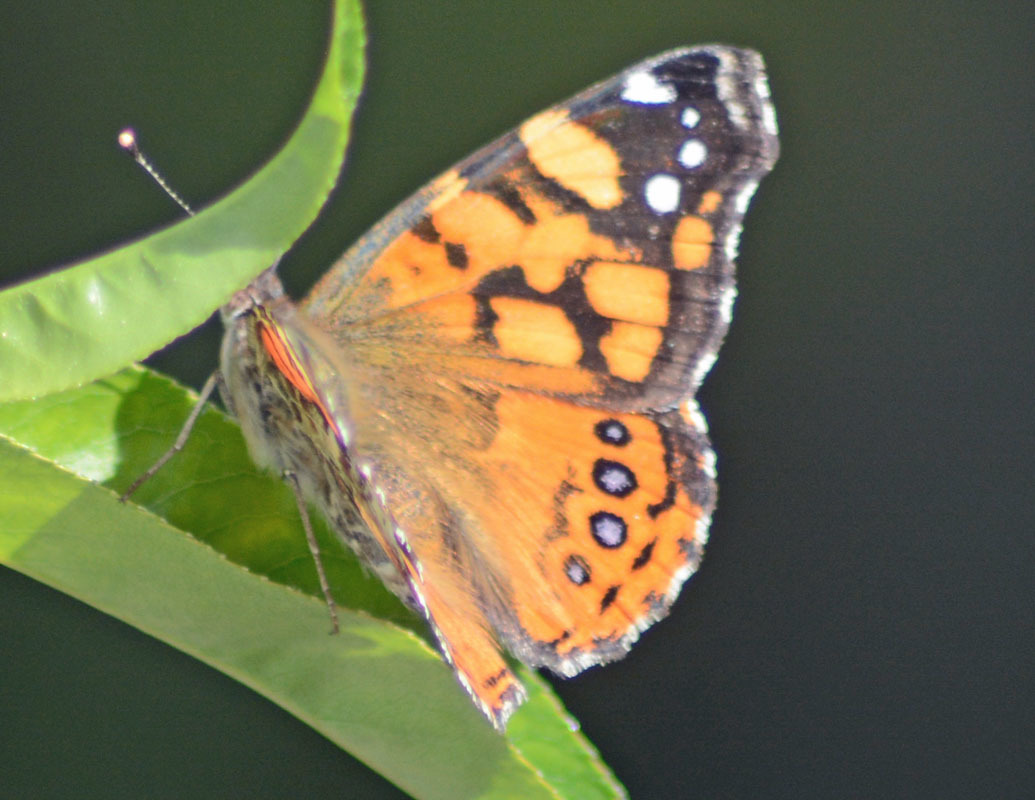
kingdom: Animalia
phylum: Arthropoda
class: Insecta
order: Lepidoptera
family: Nymphalidae
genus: Vanessa
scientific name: Vanessa annabella
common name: West coast lady
